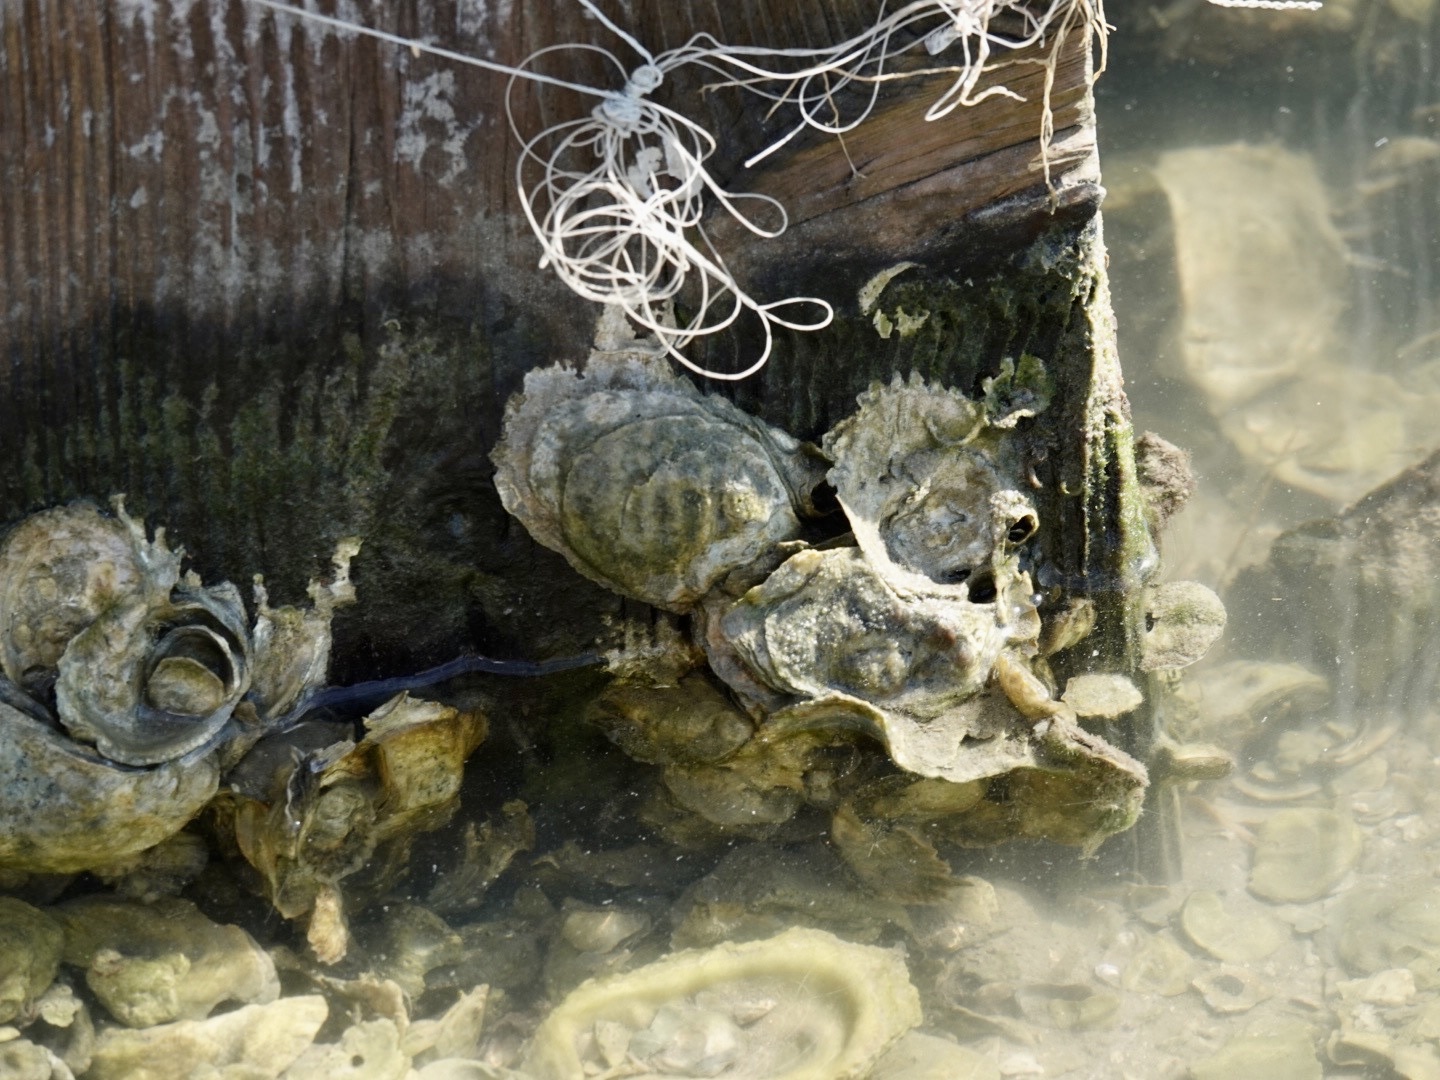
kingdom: Animalia
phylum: Mollusca
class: Bivalvia
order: Ostreida
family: Ostreidae
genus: Crassostrea
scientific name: Crassostrea virginica
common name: American oyster
